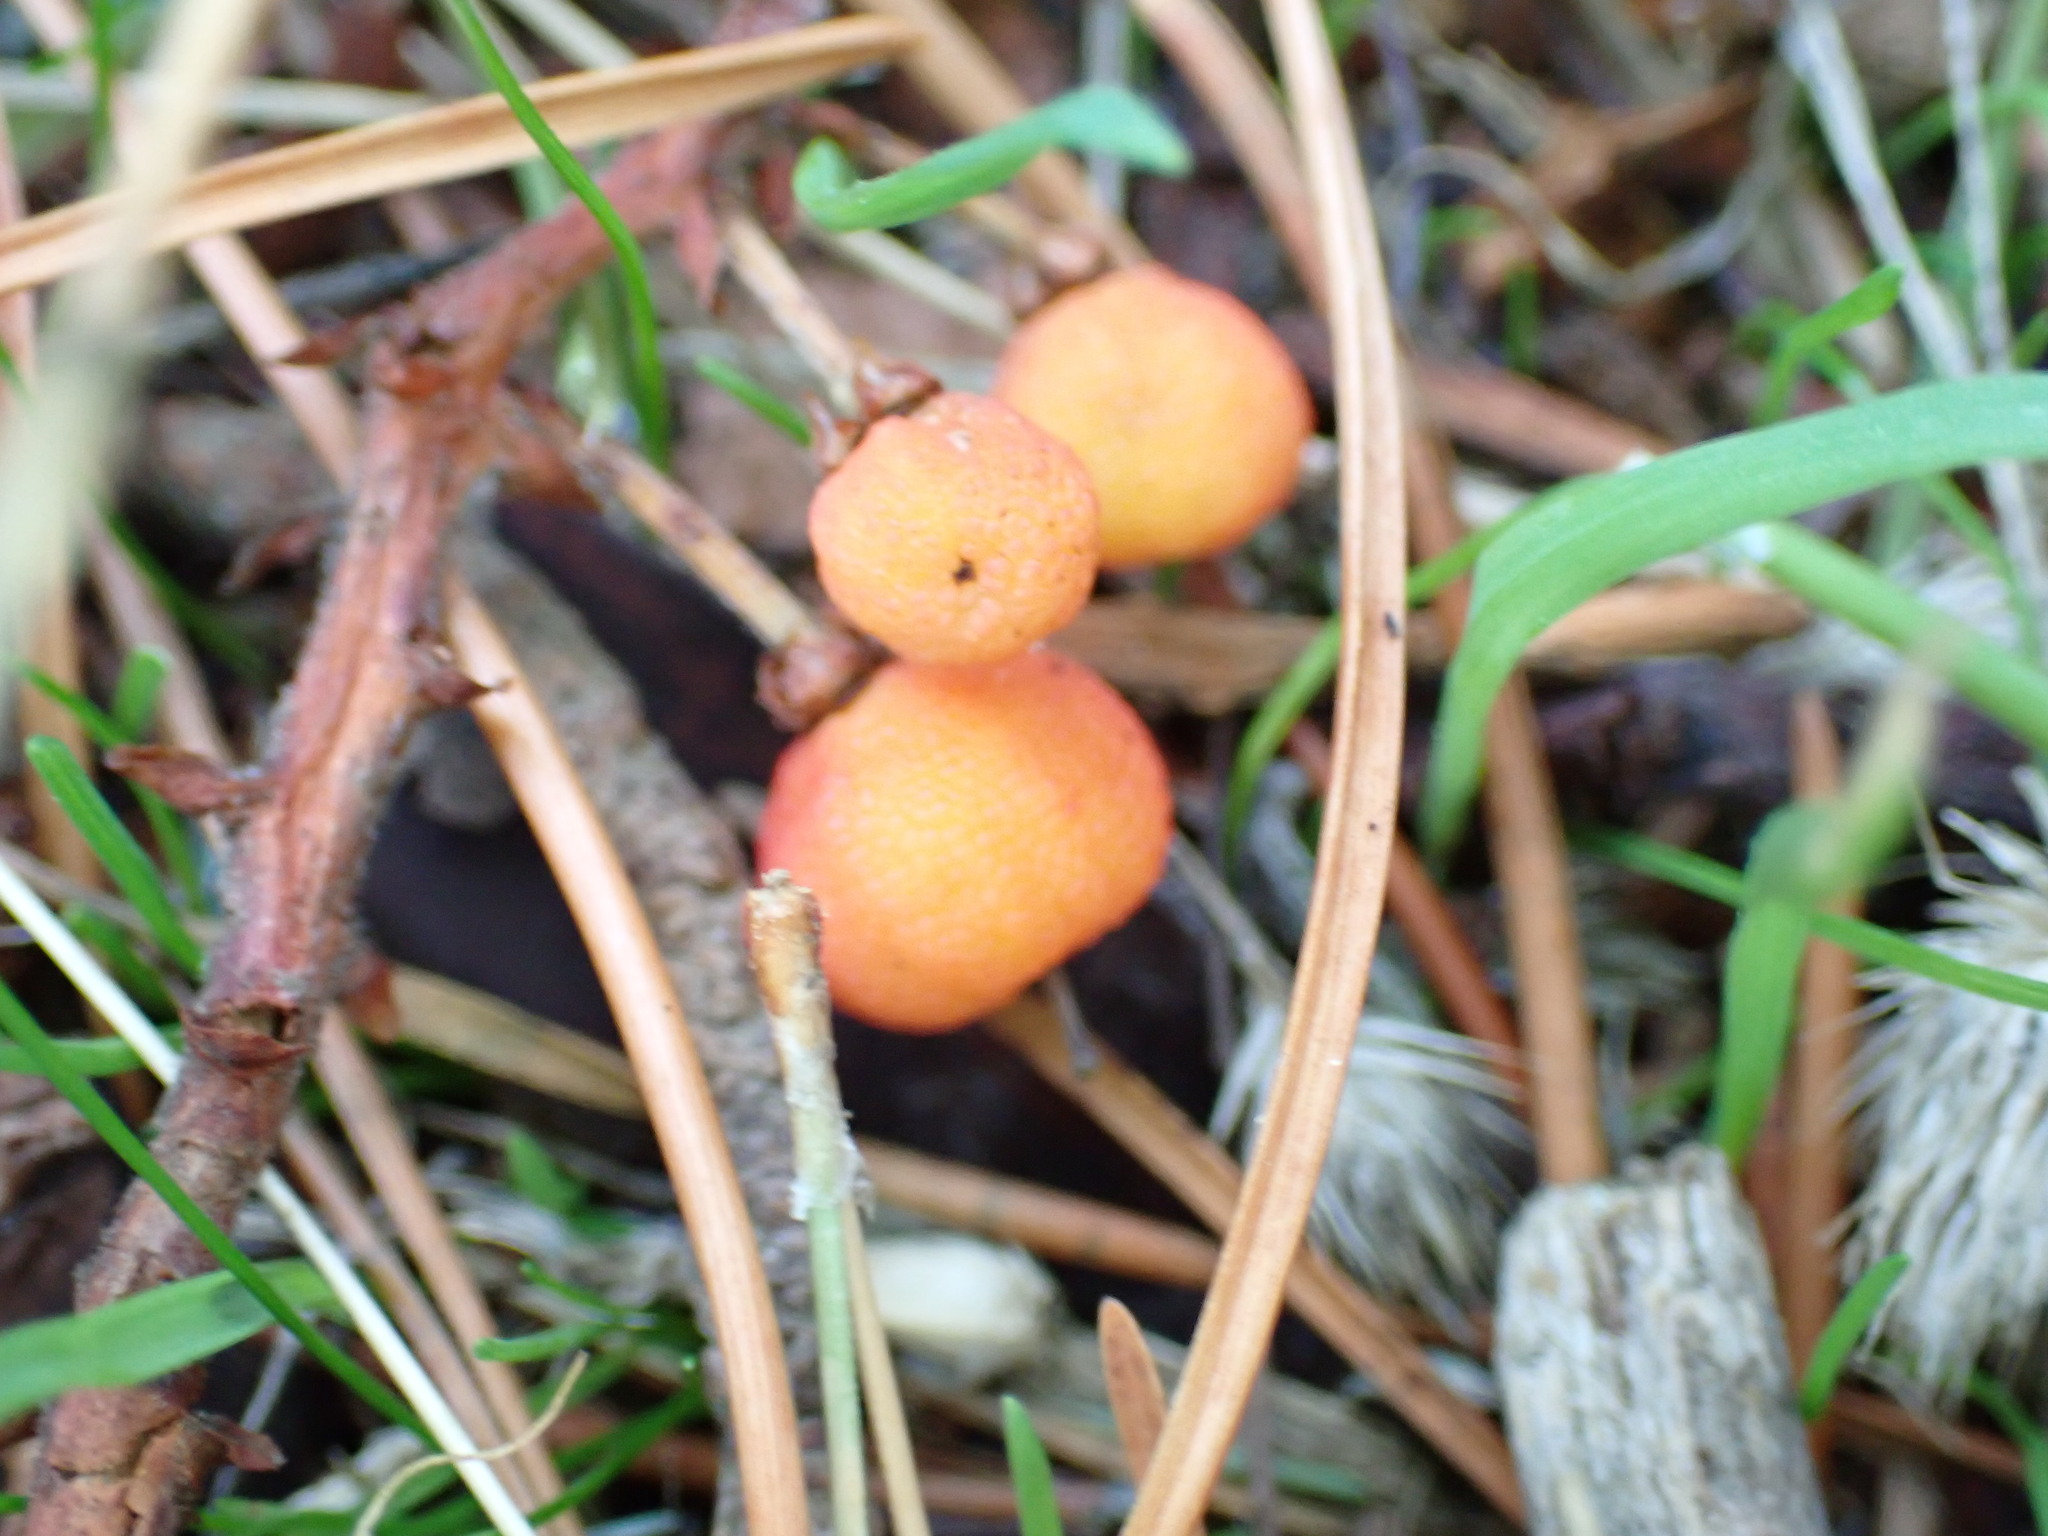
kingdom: Plantae
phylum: Tracheophyta
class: Magnoliopsida
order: Ericales
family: Ericaceae
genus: Arbutus
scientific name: Arbutus menziesii
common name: Pacific madrone
